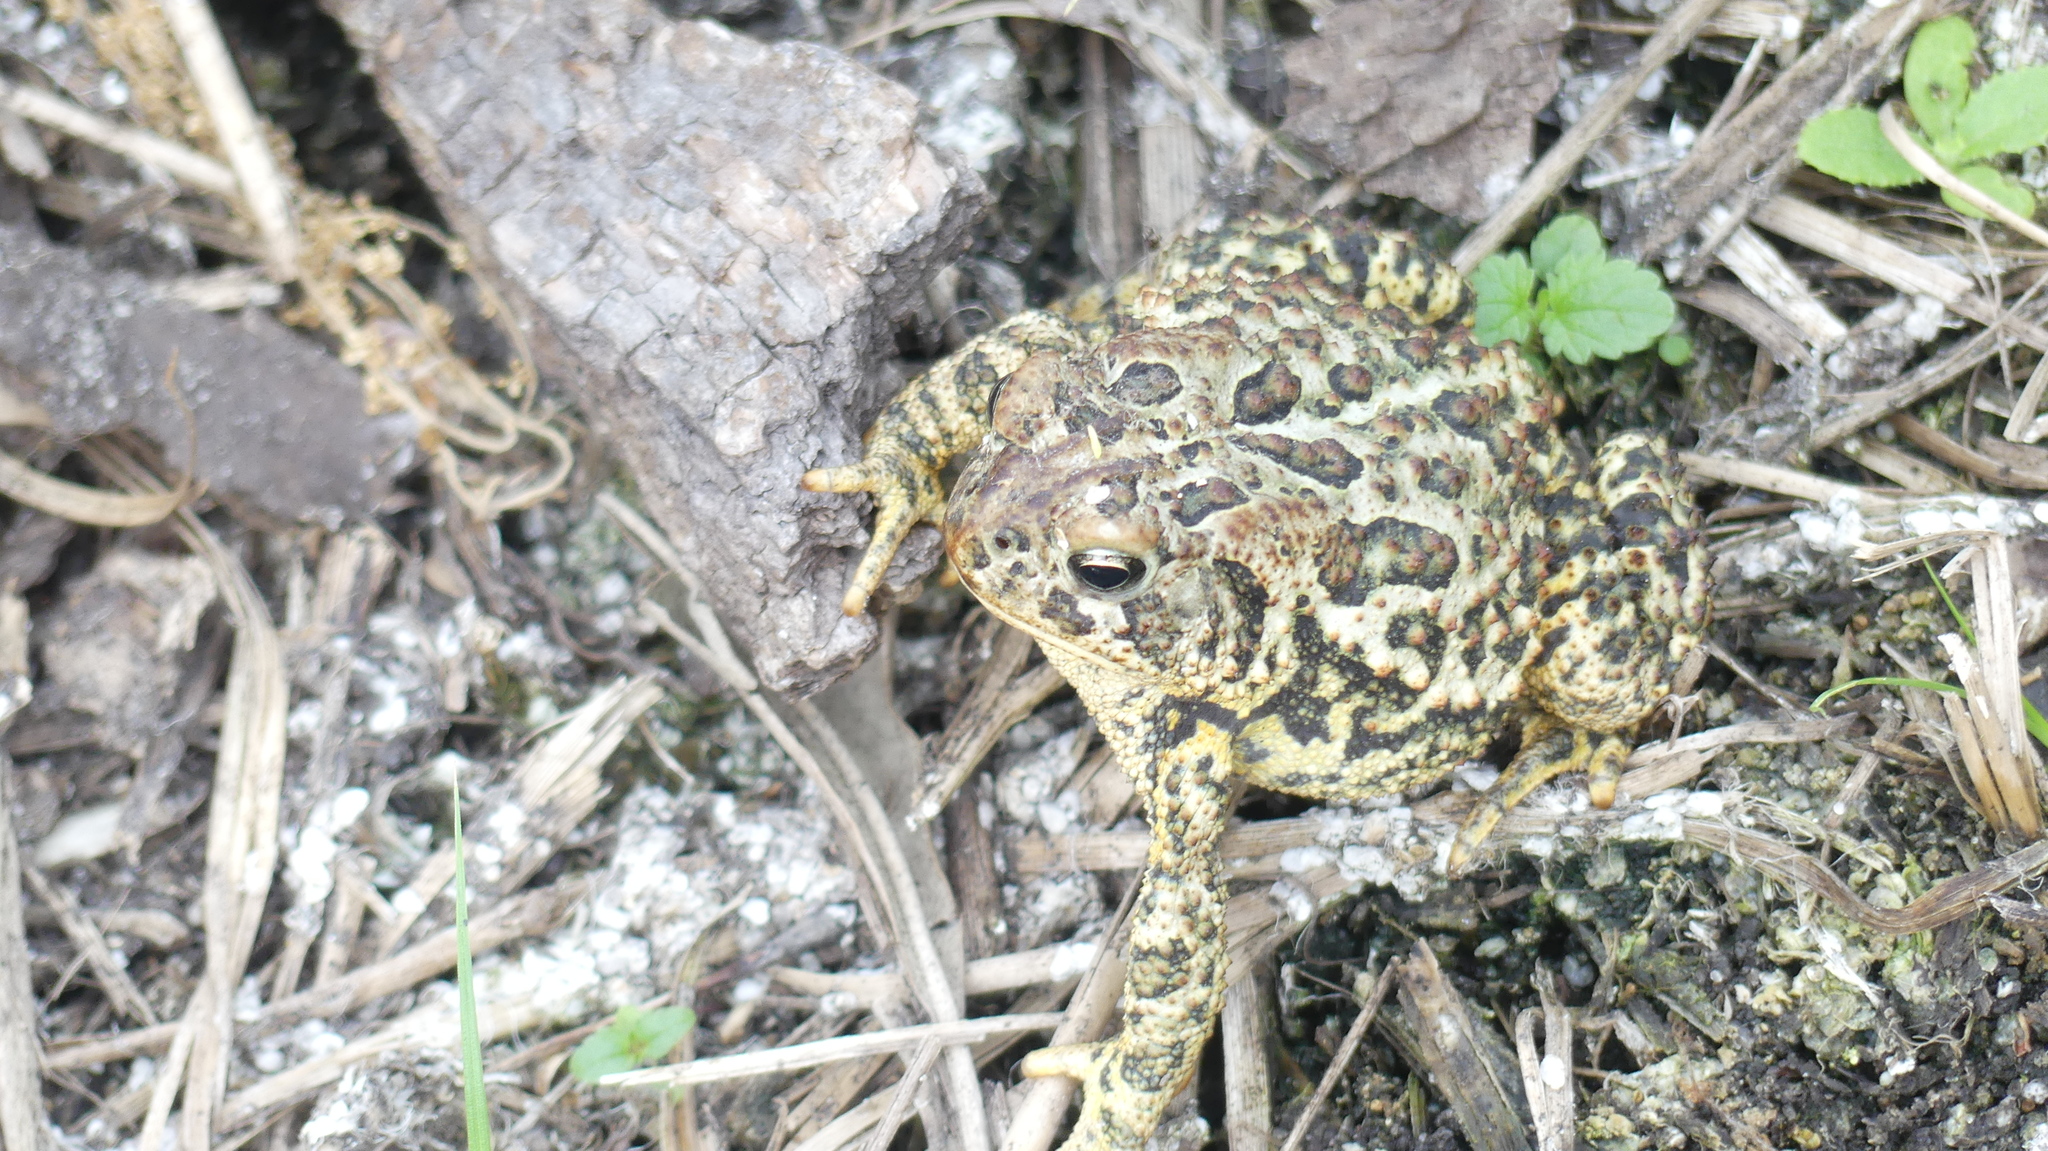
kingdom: Animalia
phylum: Chordata
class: Amphibia
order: Anura
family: Bufonidae
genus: Anaxyrus
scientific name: Anaxyrus hemiophrys
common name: Canadian toad
